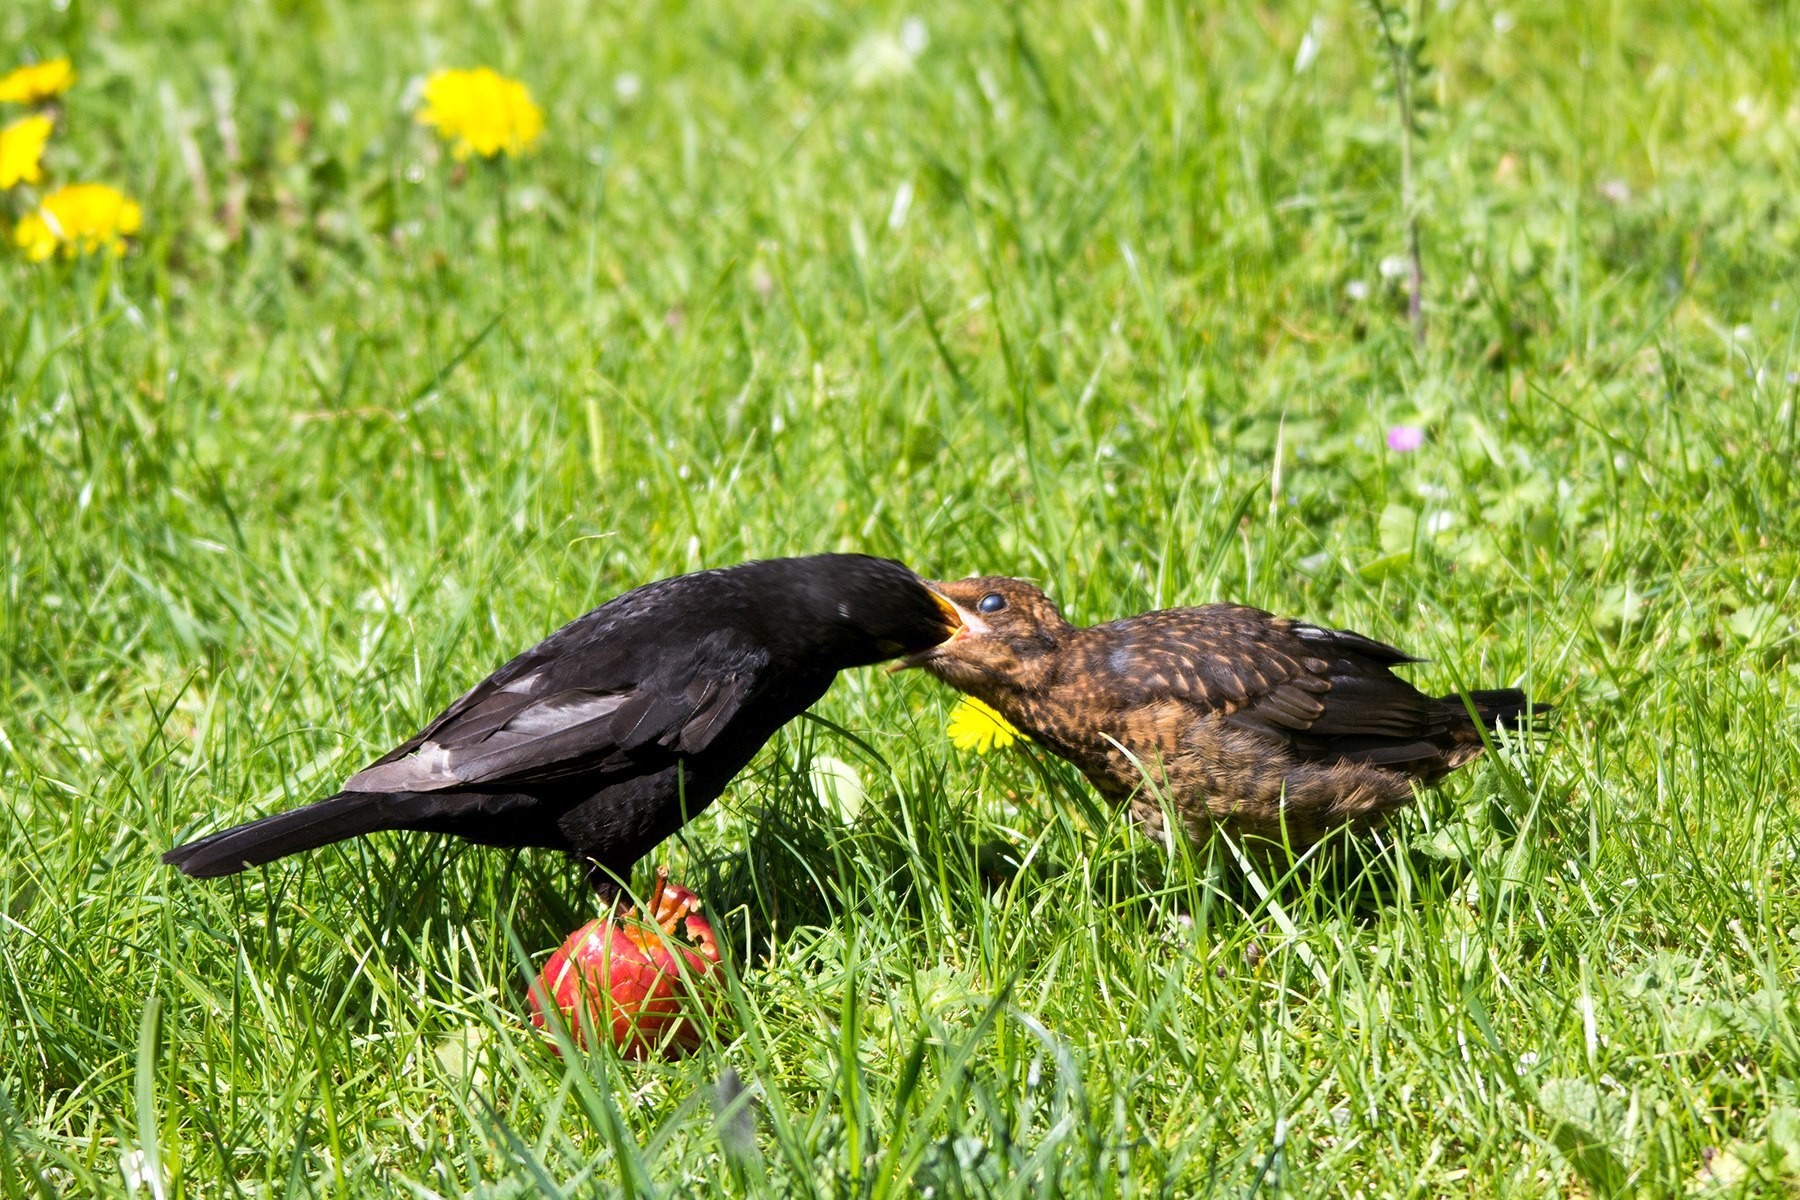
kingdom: Animalia
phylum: Chordata
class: Aves
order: Passeriformes
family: Turdidae
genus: Turdus
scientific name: Turdus merula
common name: Common blackbird
